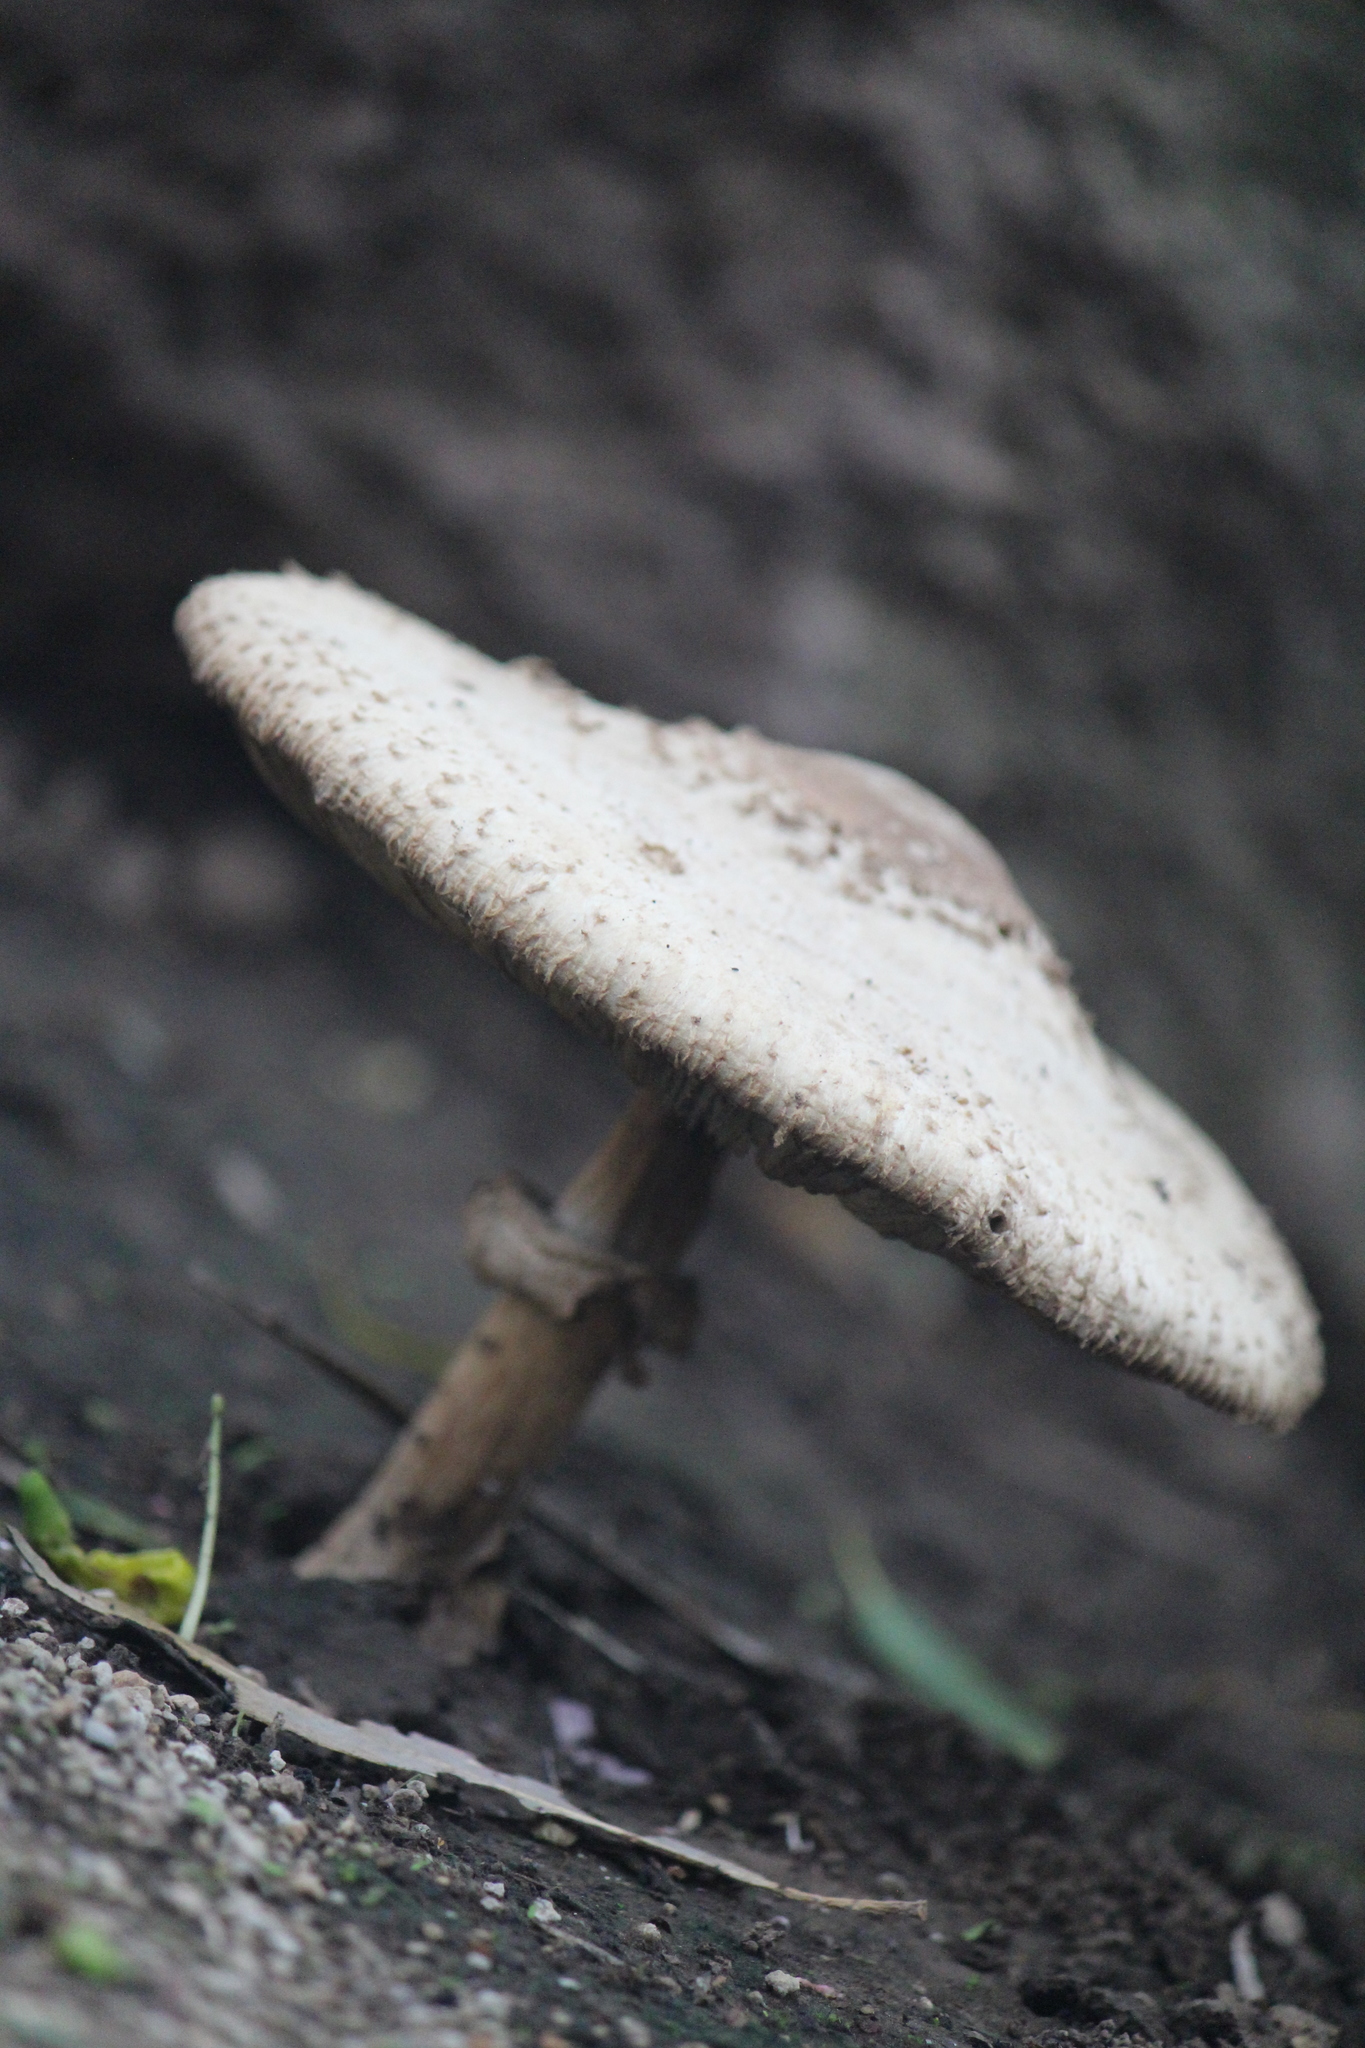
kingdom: Fungi
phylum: Basidiomycota
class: Agaricomycetes
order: Agaricales
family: Agaricaceae
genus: Chlorophyllum
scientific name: Chlorophyllum molybdites
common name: False parasol
